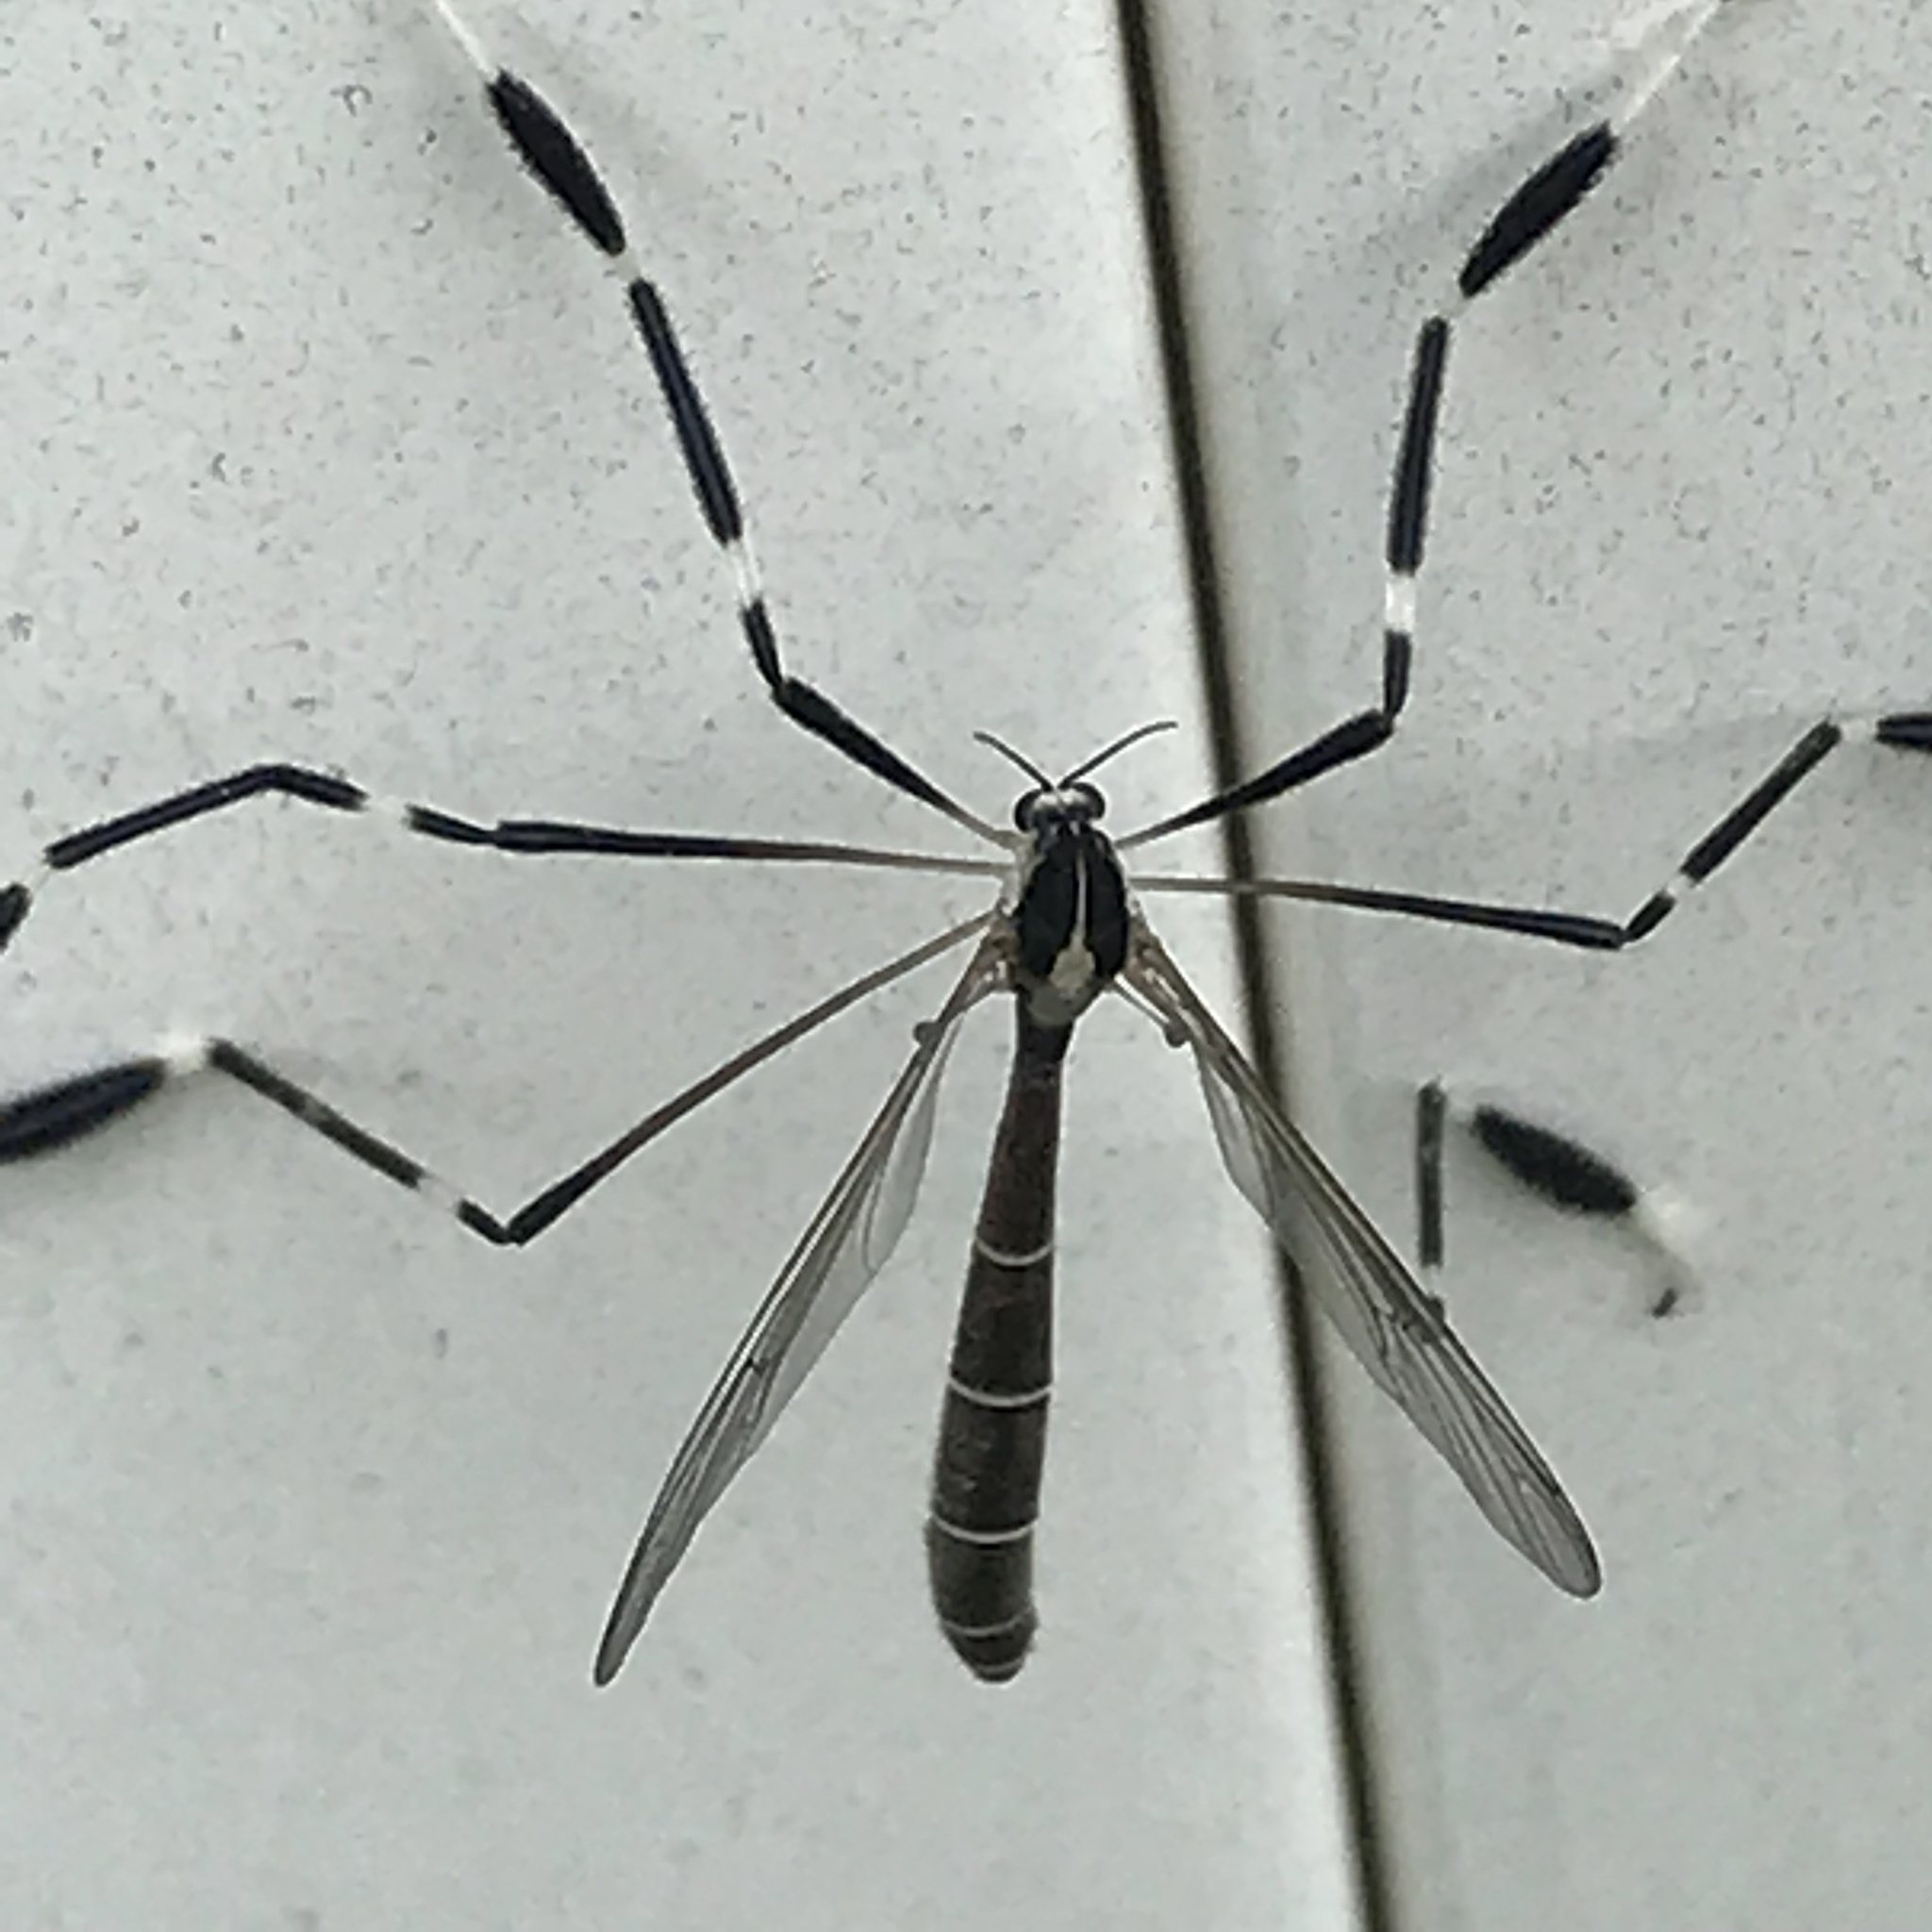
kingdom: Animalia
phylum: Arthropoda
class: Insecta
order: Diptera
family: Ptychopteridae
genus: Bittacomorpha
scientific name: Bittacomorpha clavipes
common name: Eastern phantom crane fly
